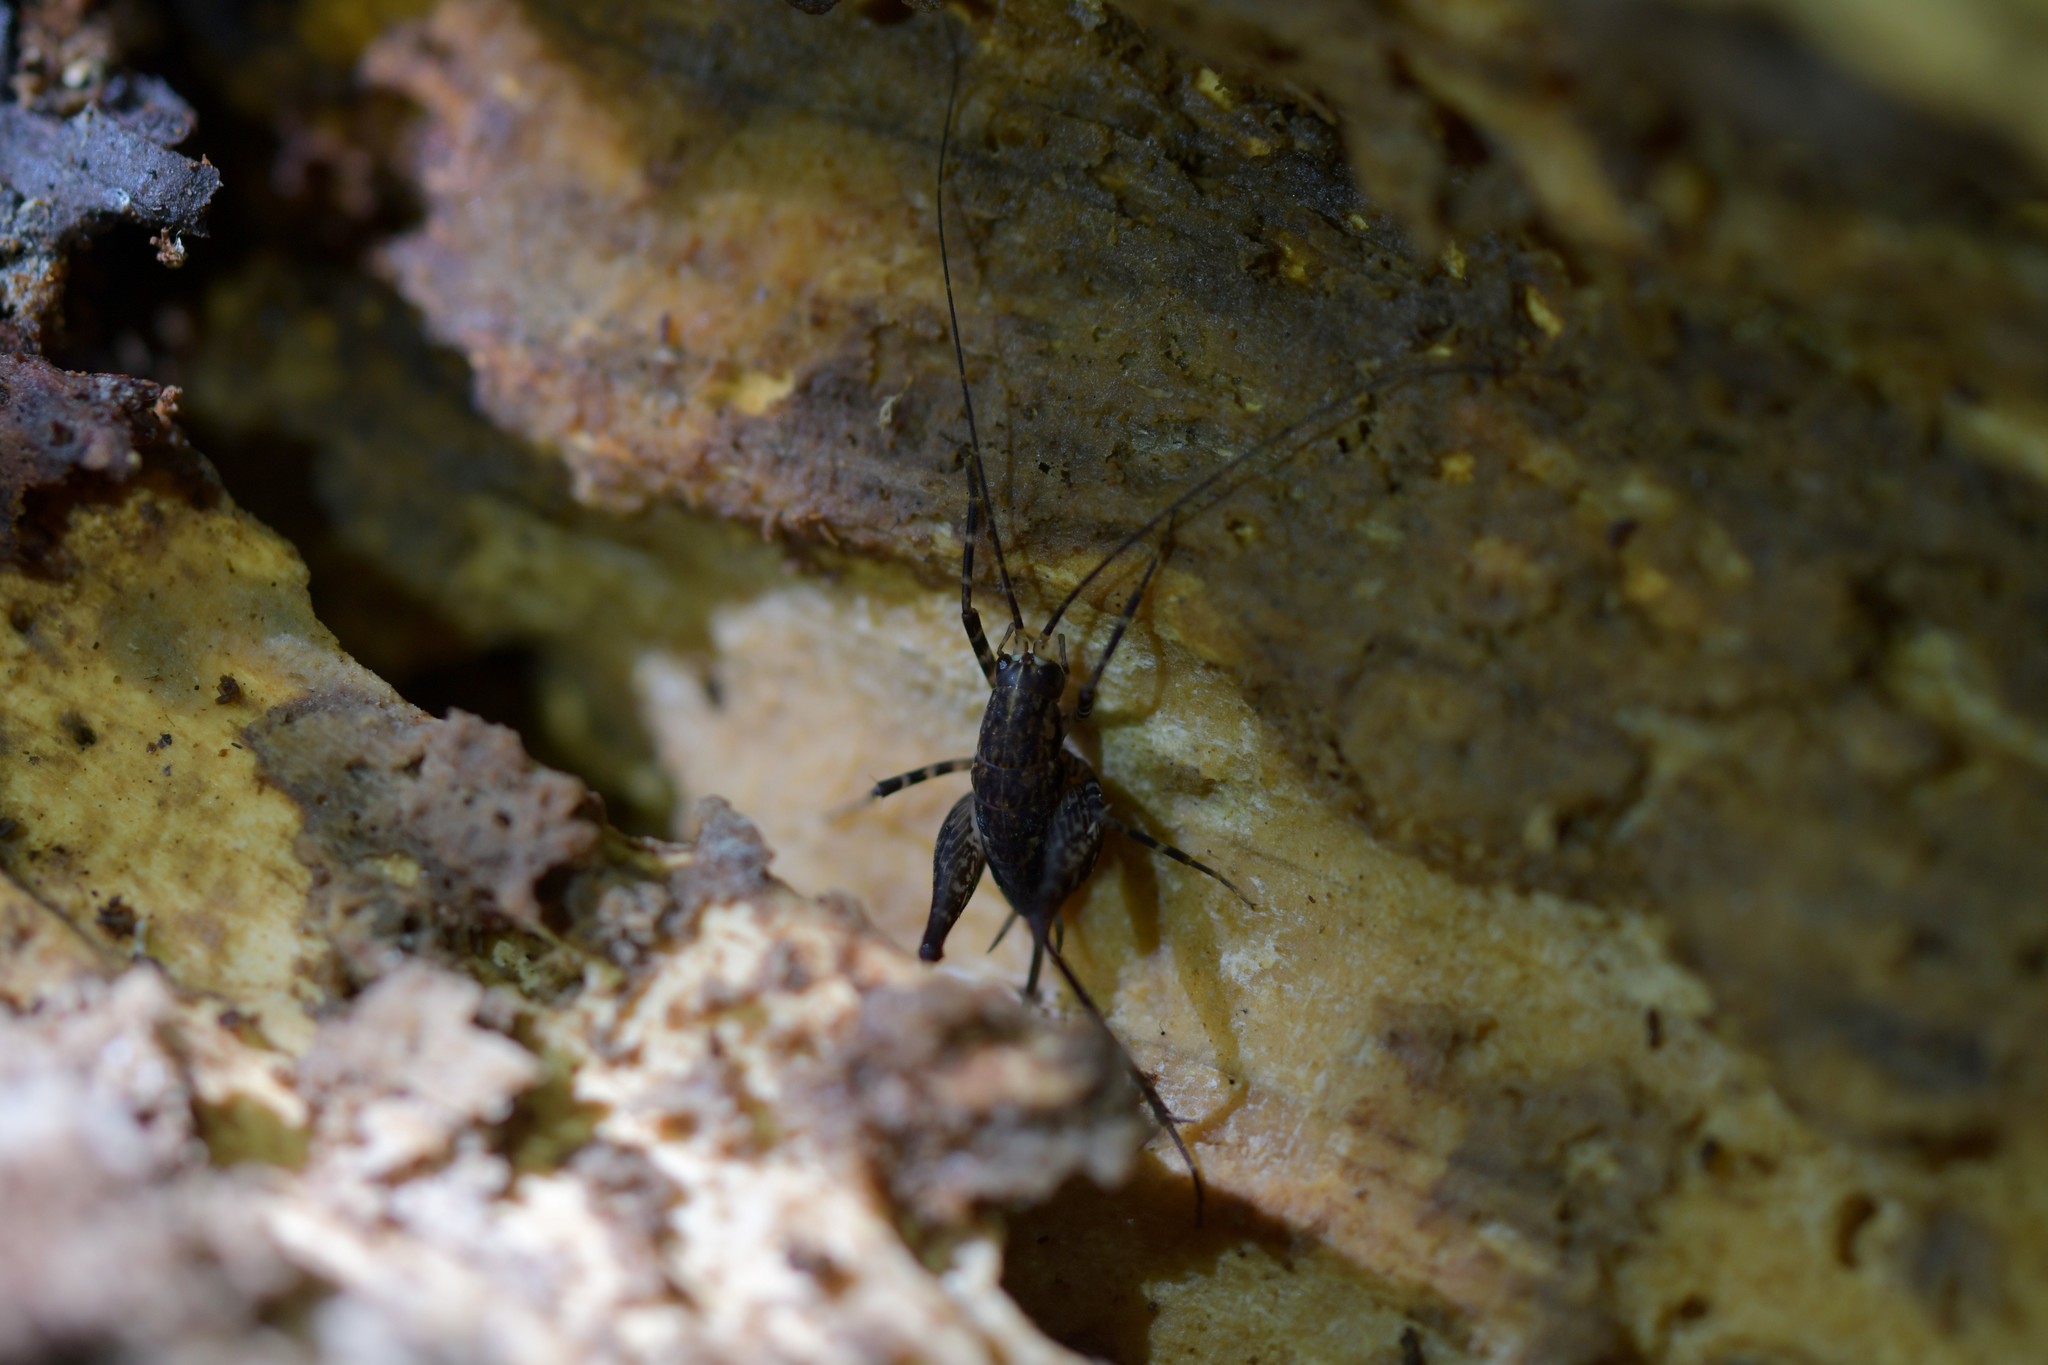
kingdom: Animalia
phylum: Arthropoda
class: Insecta
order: Orthoptera
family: Rhaphidophoridae
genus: Pleioplectron
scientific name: Pleioplectron hudsoni
